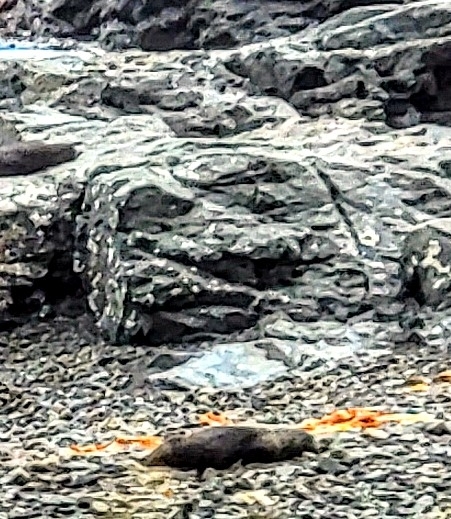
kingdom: Animalia
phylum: Chordata
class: Mammalia
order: Carnivora
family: Otariidae
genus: Arctocephalus
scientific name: Arctocephalus forsteri
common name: New zealand fur seal
